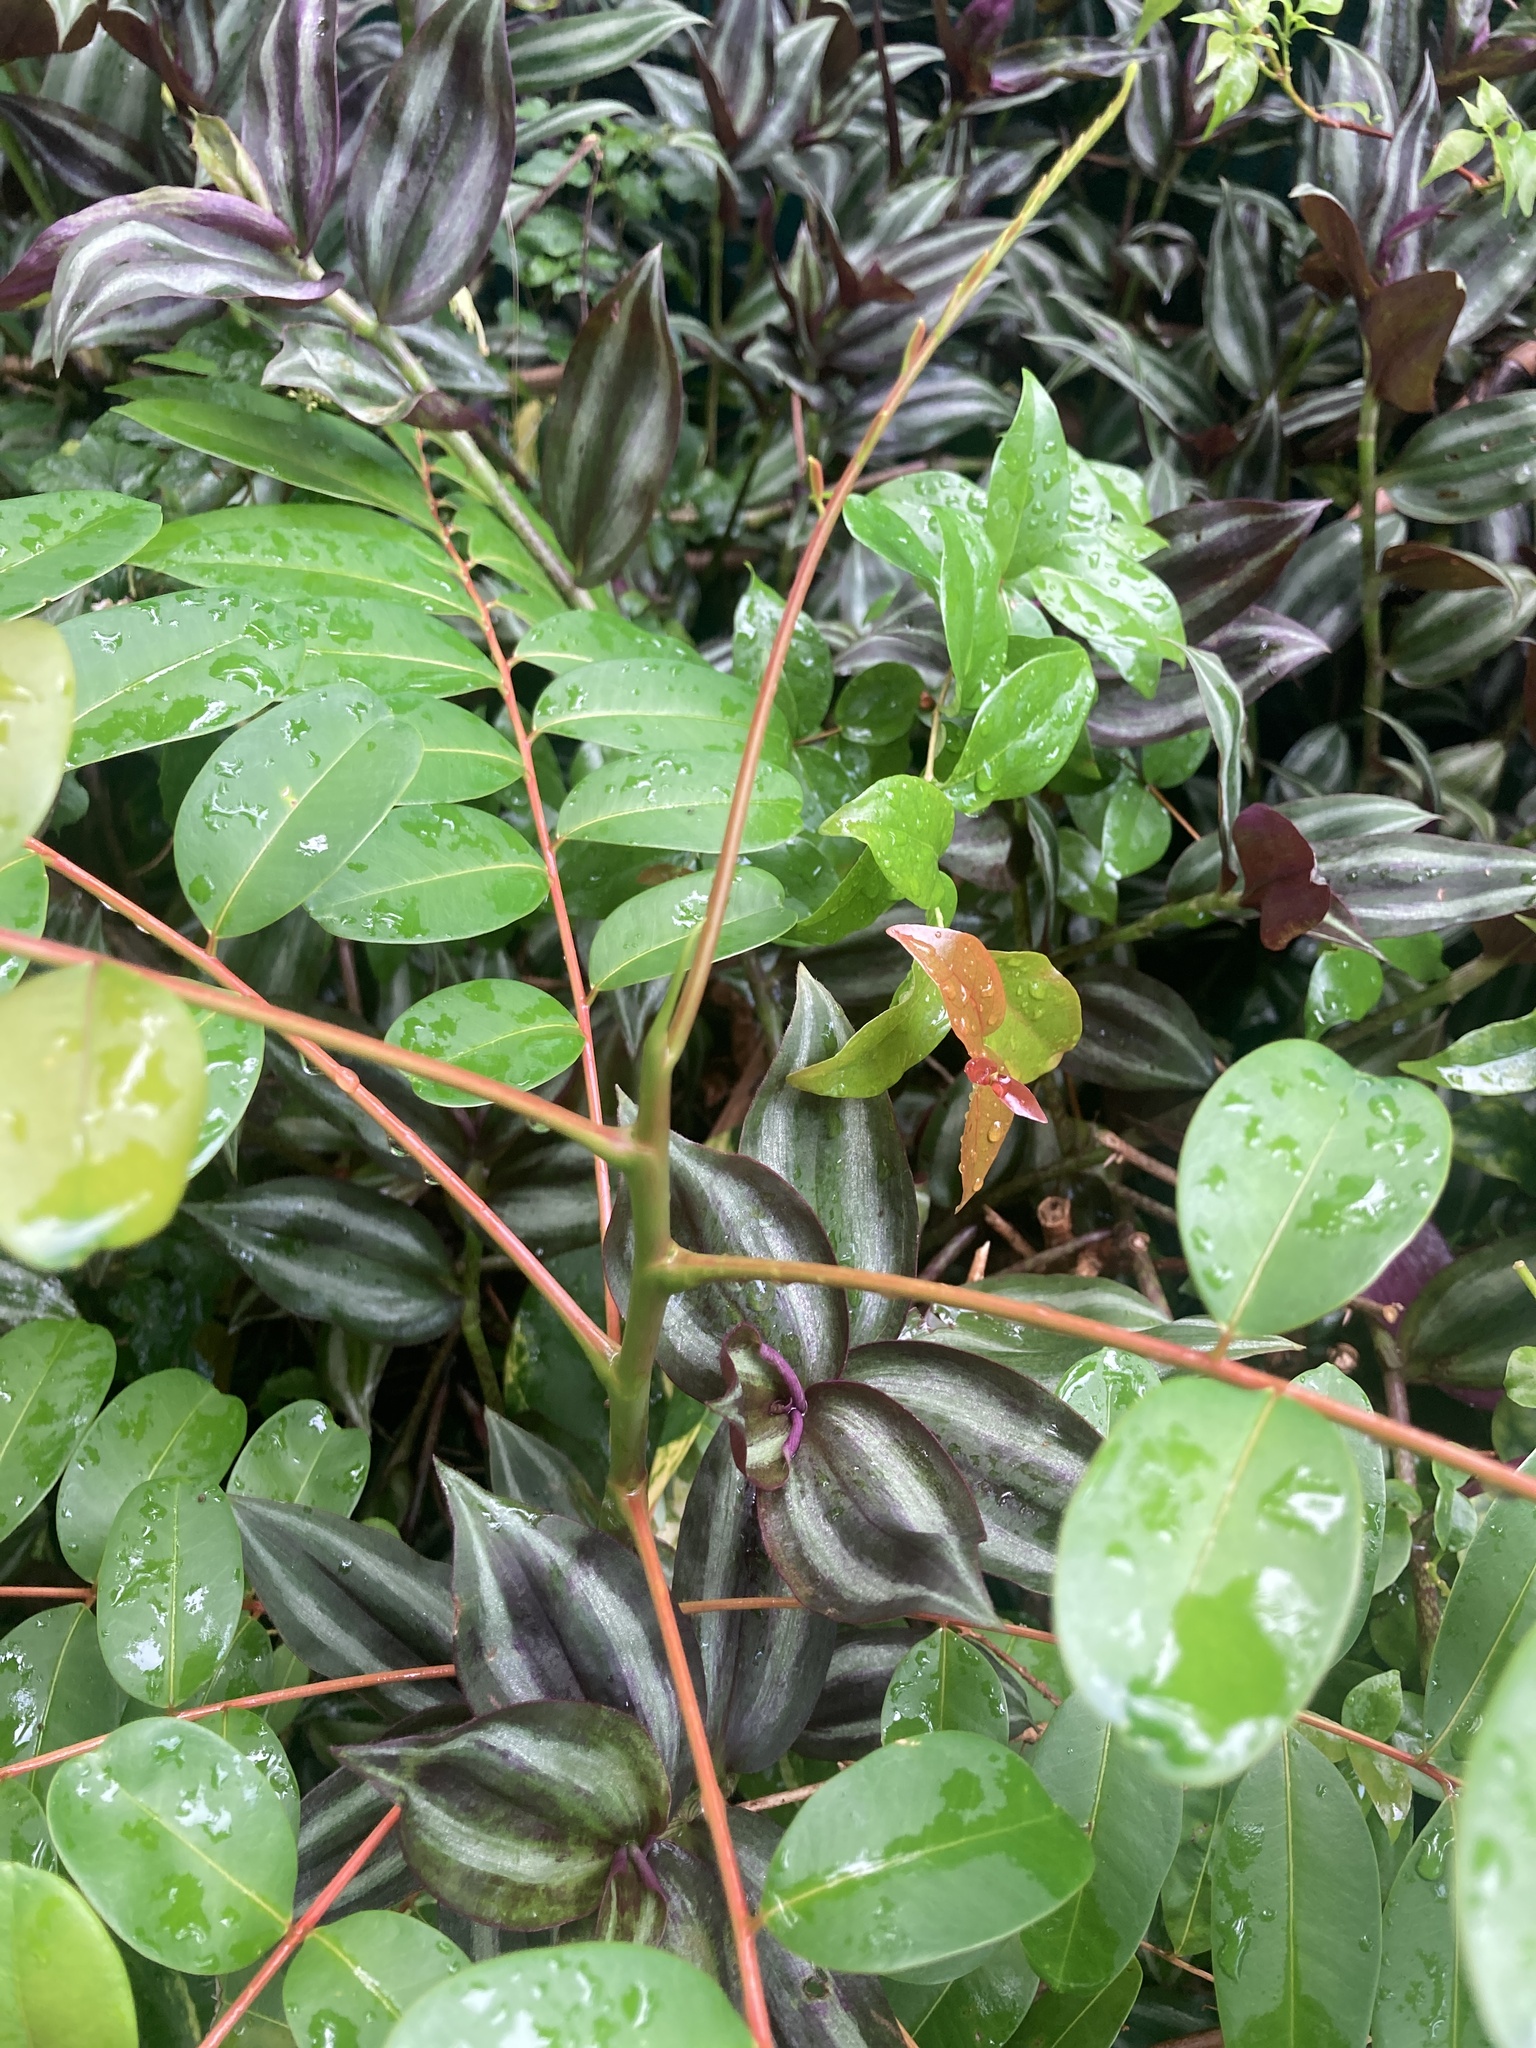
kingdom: Plantae
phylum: Tracheophyta
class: Magnoliopsida
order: Sapindales
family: Simaroubaceae
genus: Simarouba
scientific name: Simarouba glauca
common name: Dysentery-bark
